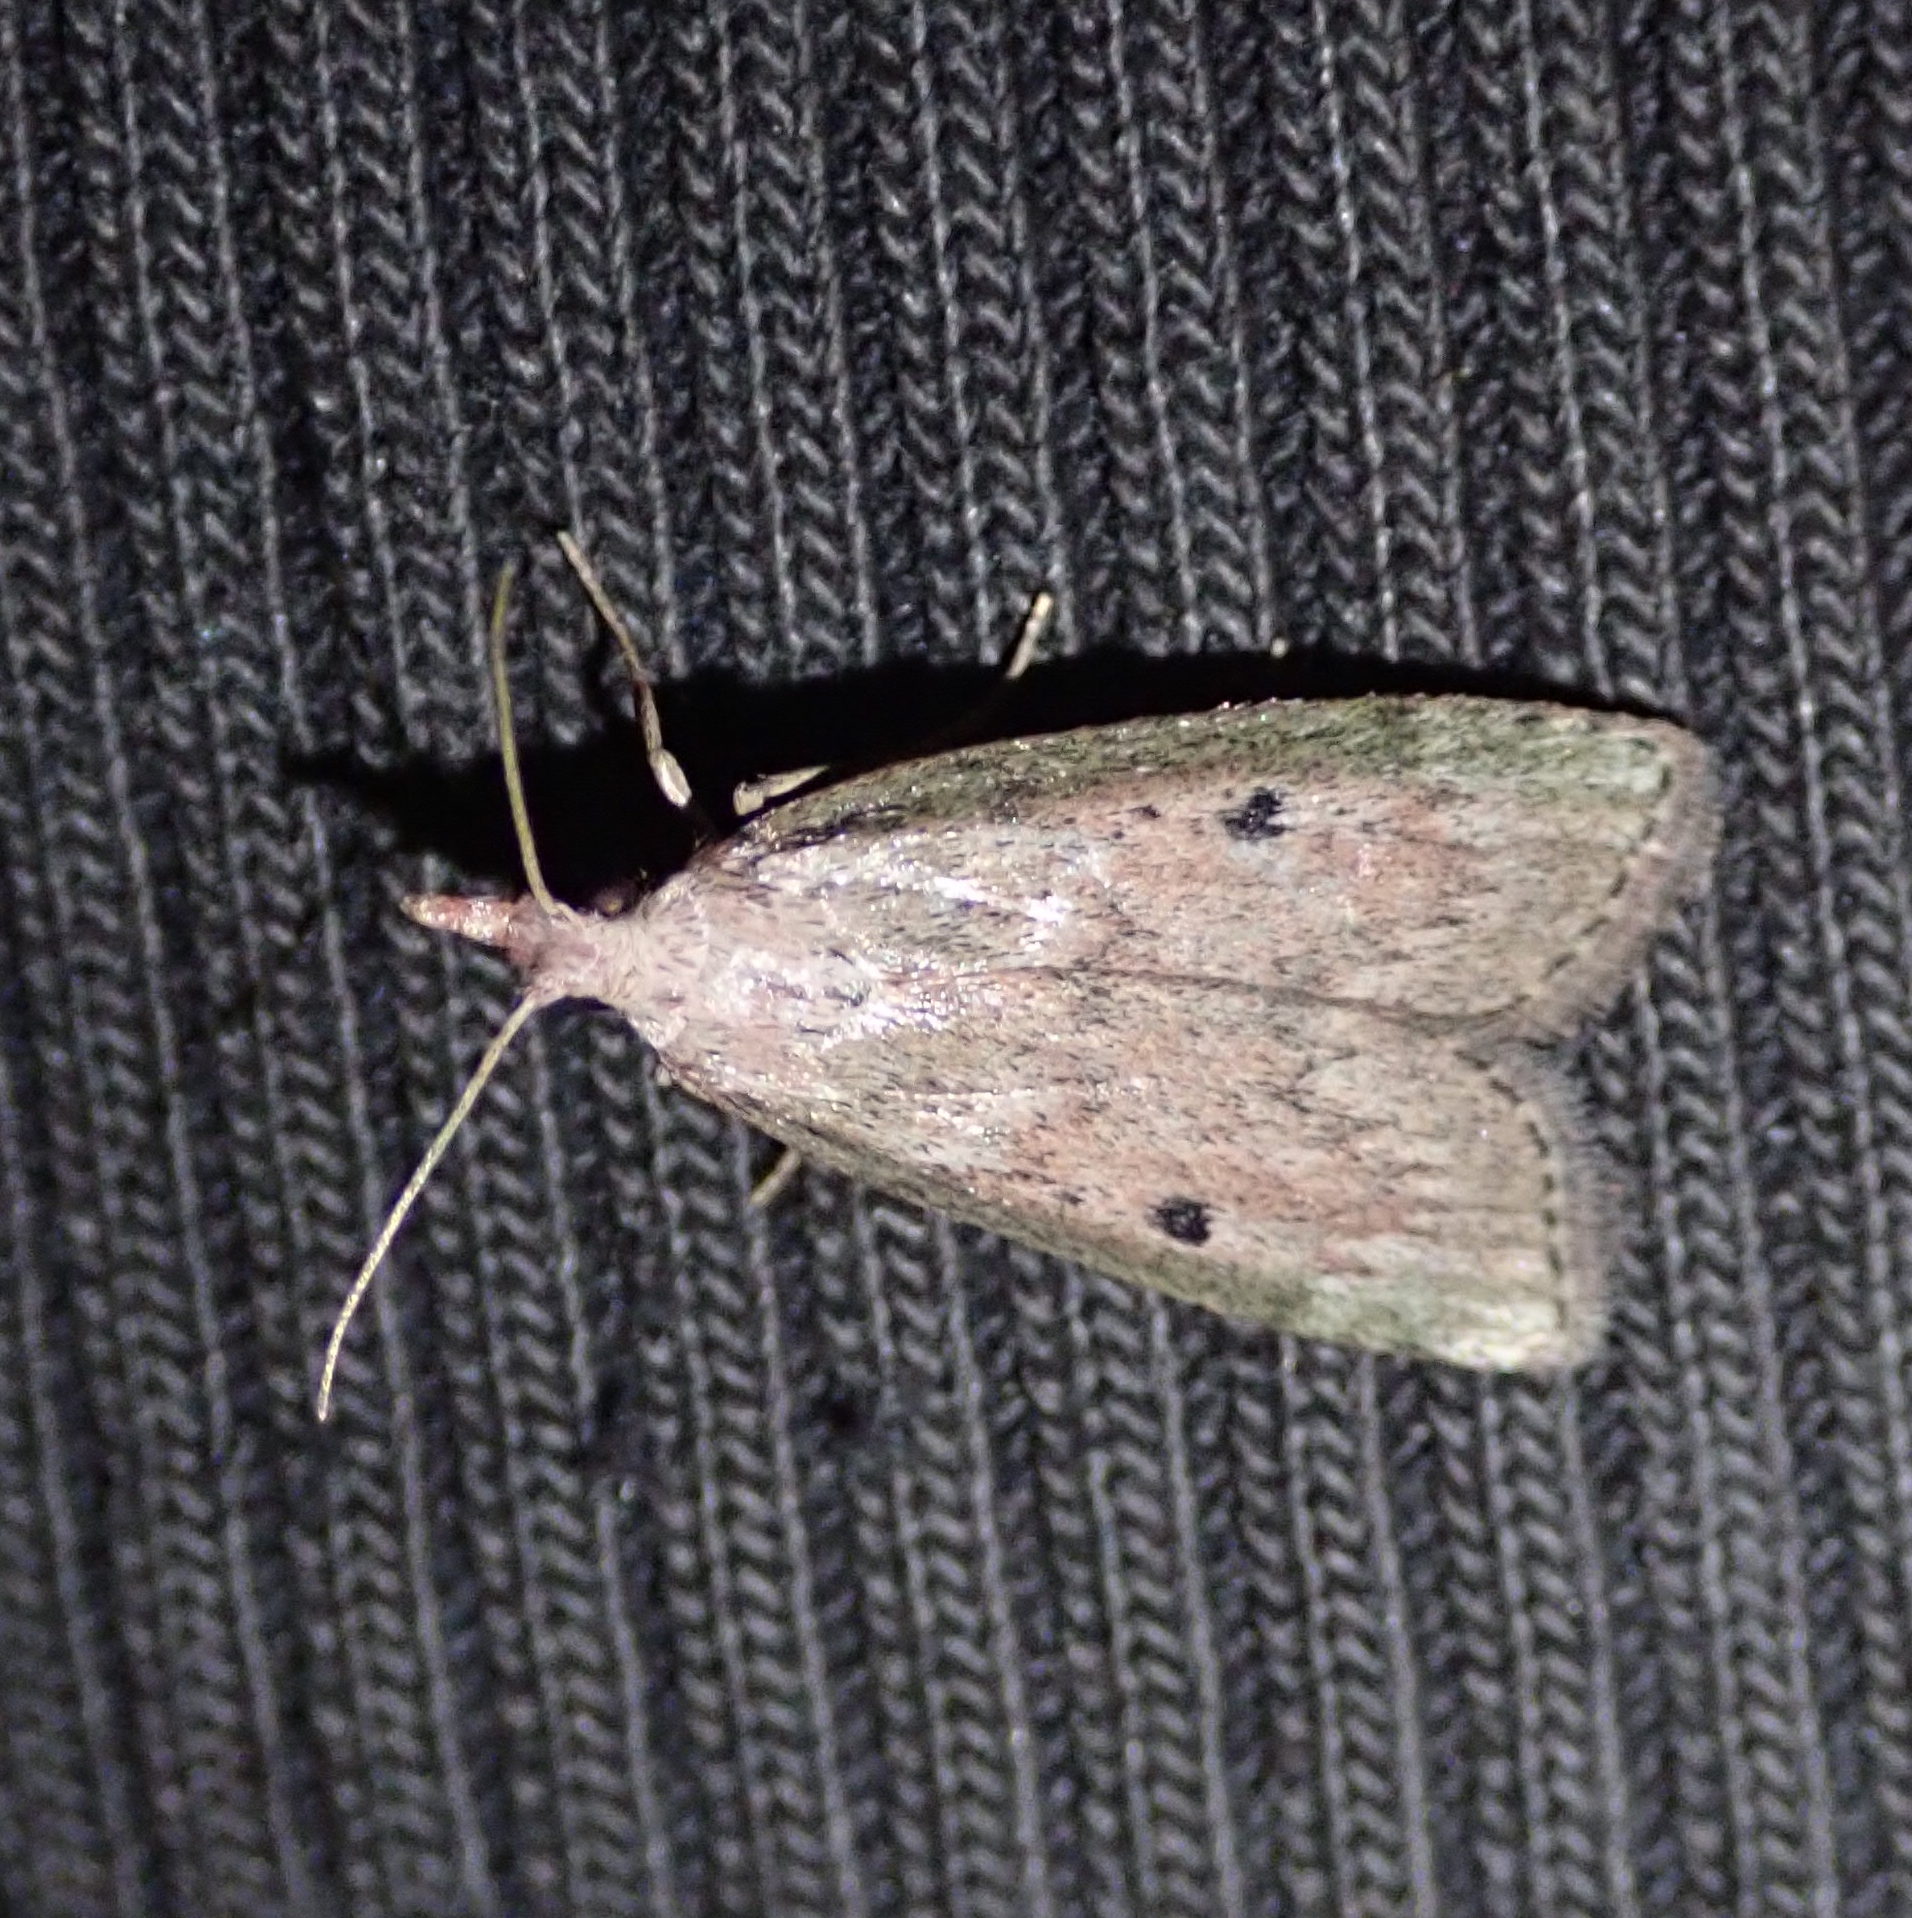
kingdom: Animalia
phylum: Arthropoda
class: Insecta
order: Lepidoptera
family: Pyralidae
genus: Aphomia
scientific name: Aphomia sociella
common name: Bee moth
